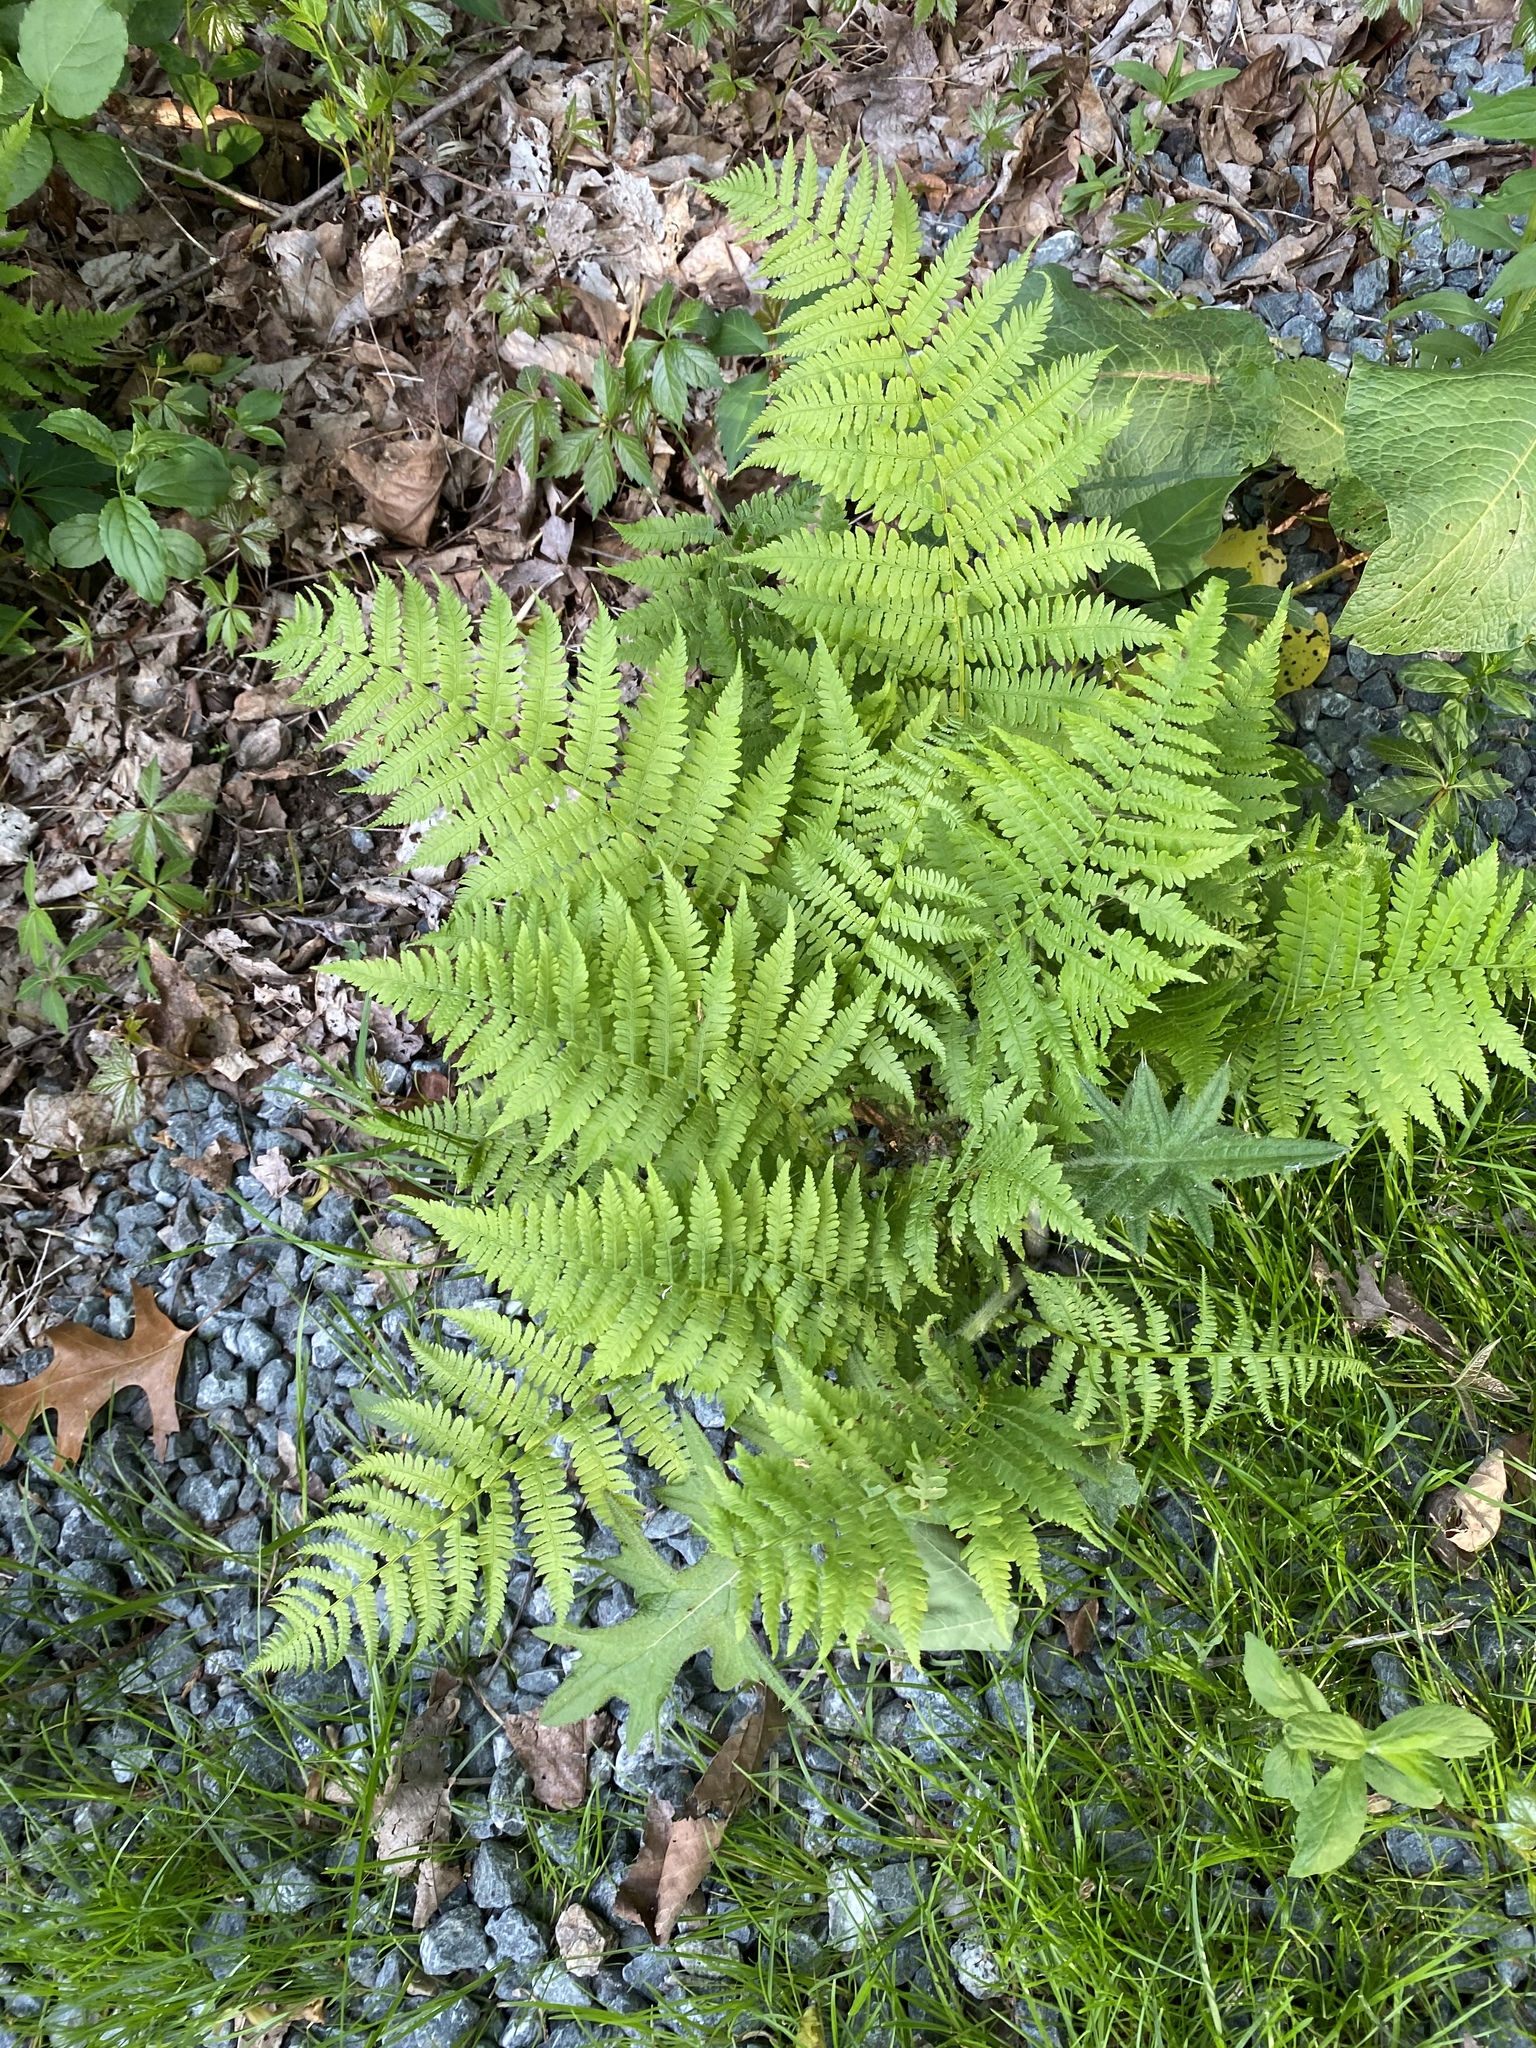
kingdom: Plantae
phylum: Tracheophyta
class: Polypodiopsida
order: Polypodiales
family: Athyriaceae
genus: Athyrium
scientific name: Athyrium angustum
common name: Northern lady fern
